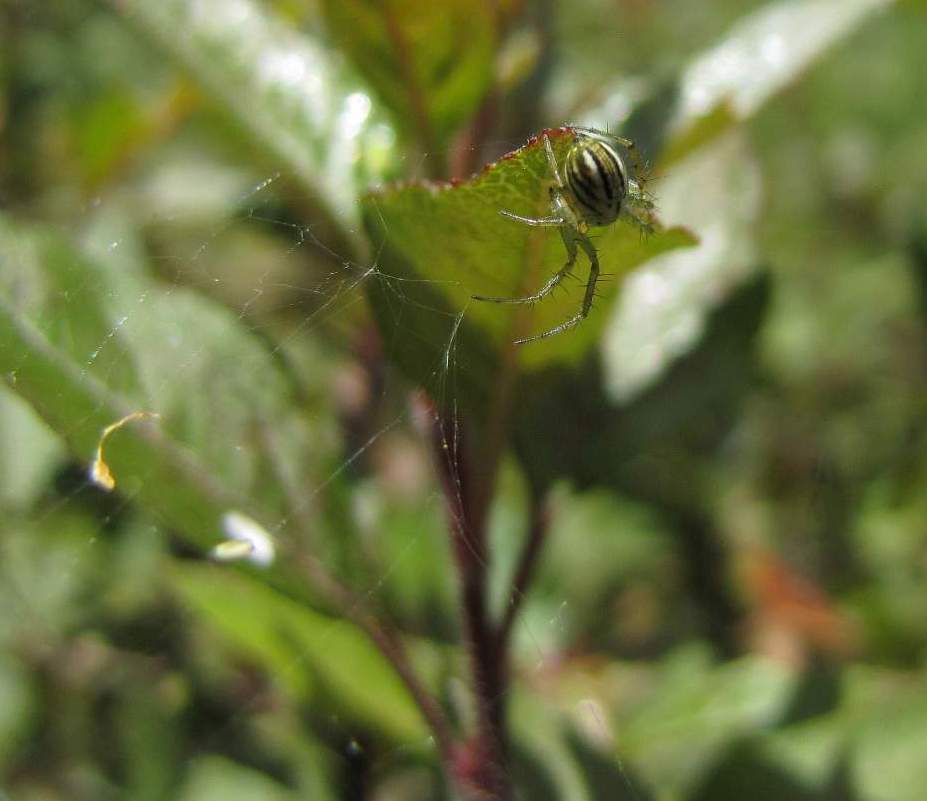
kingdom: Animalia
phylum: Arthropoda
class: Arachnida
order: Araneae
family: Araneidae
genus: Mangora
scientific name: Mangora gibberosa
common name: Lined orbweaver
